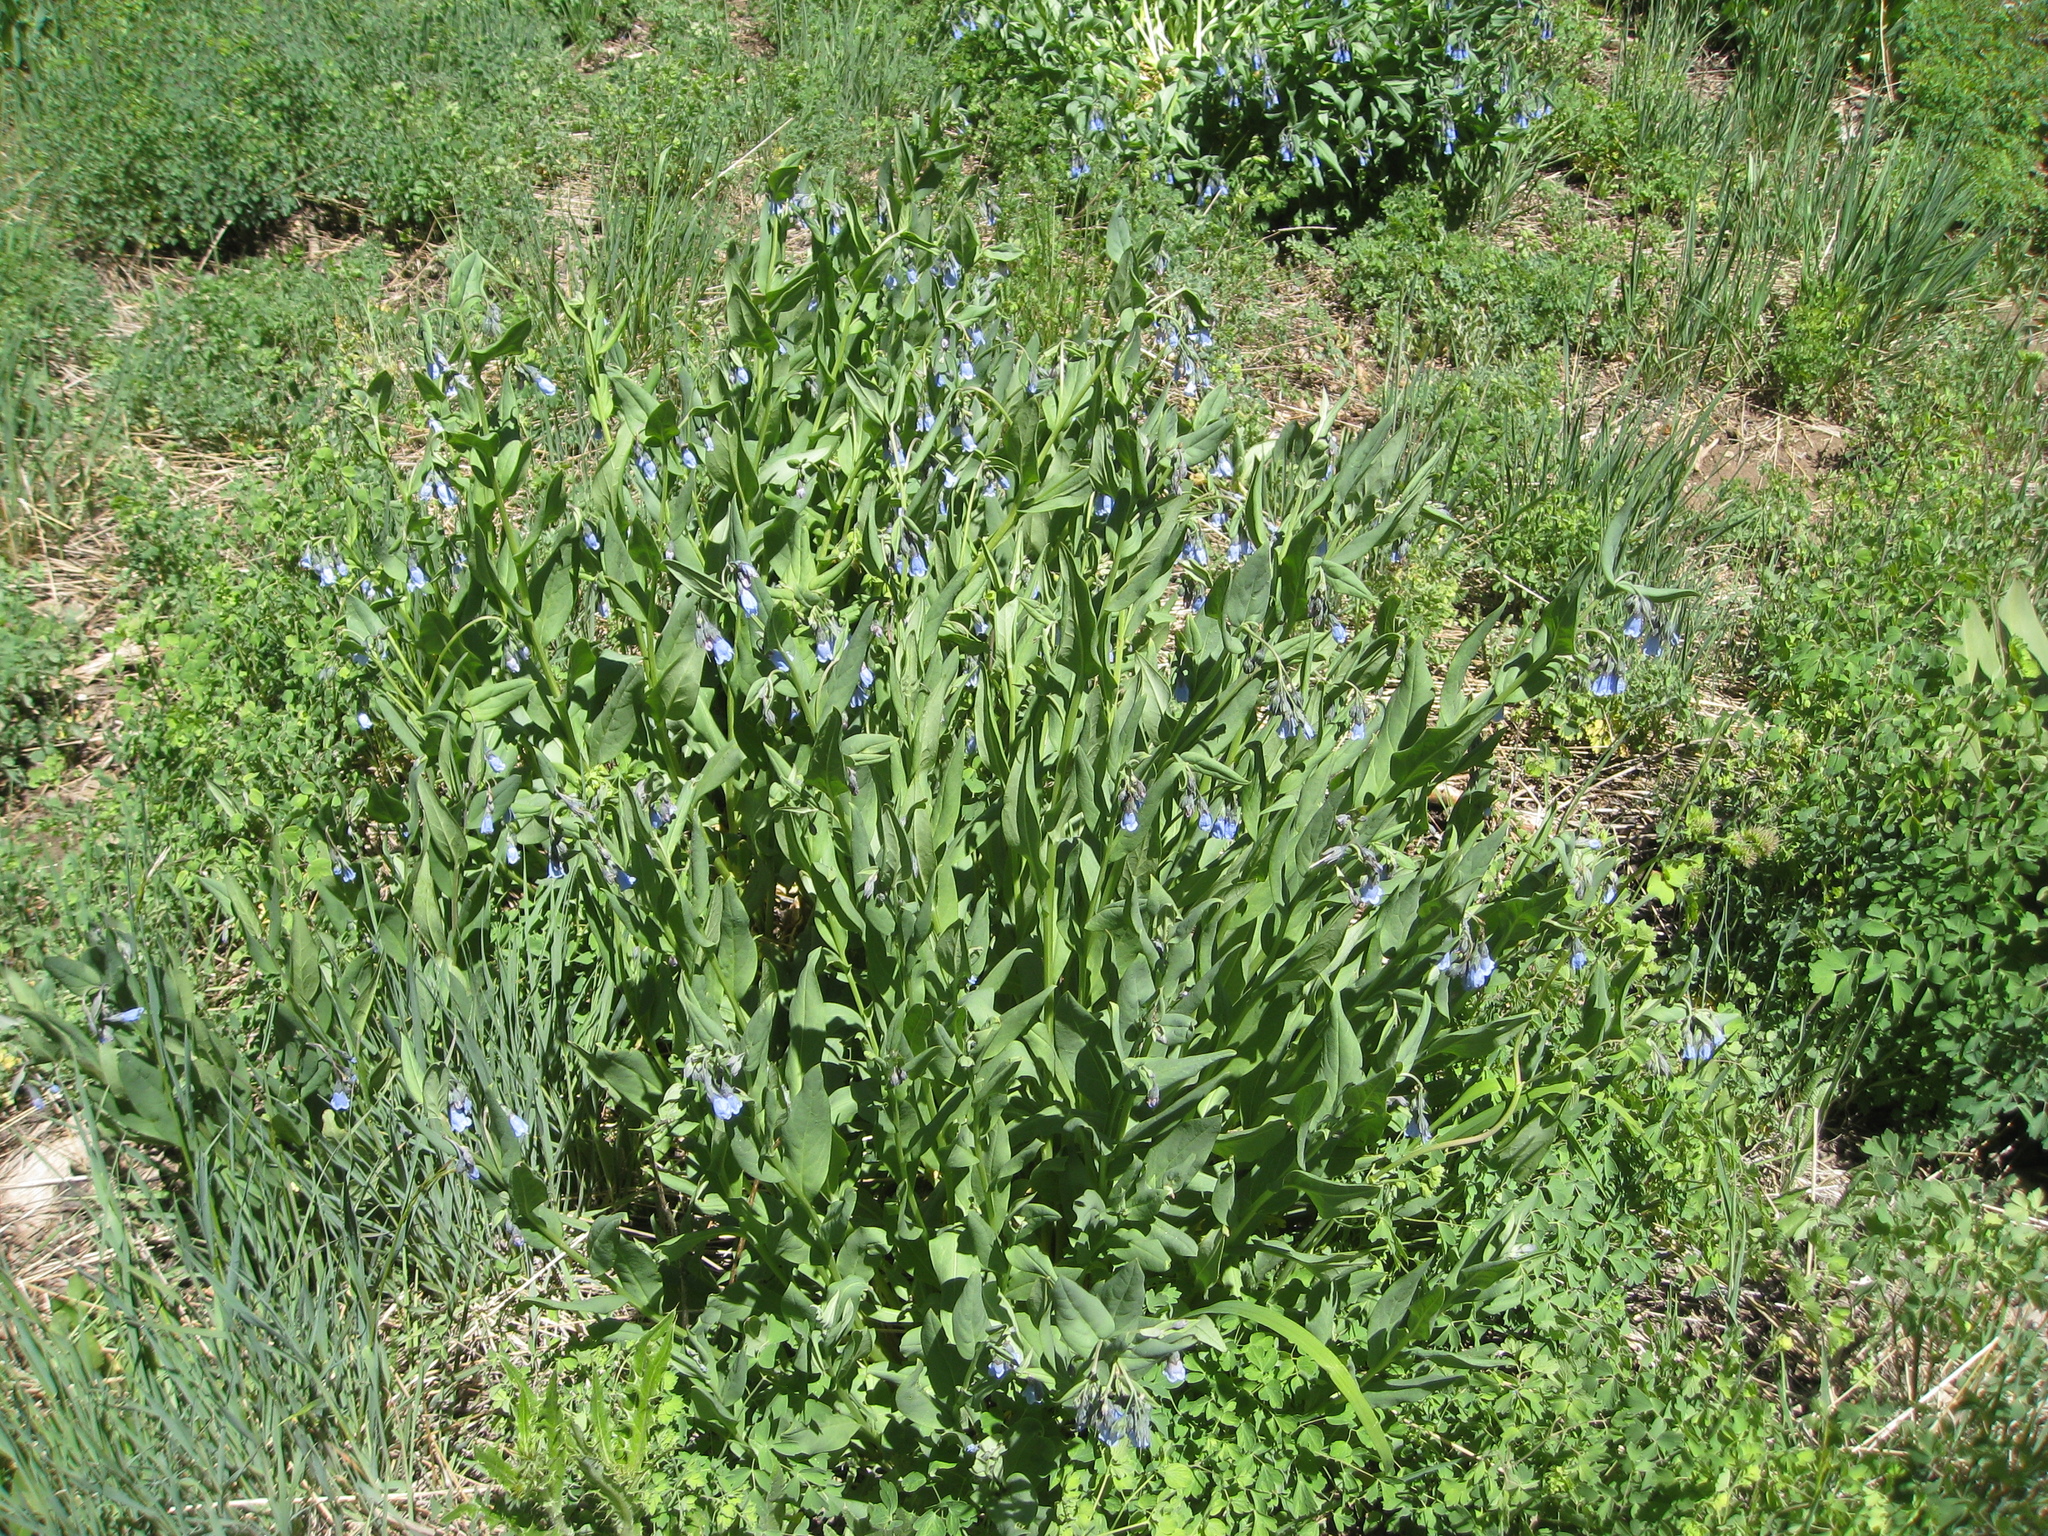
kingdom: Plantae
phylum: Tracheophyta
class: Magnoliopsida
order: Boraginales
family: Boraginaceae
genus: Mertensia
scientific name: Mertensia arizonica
